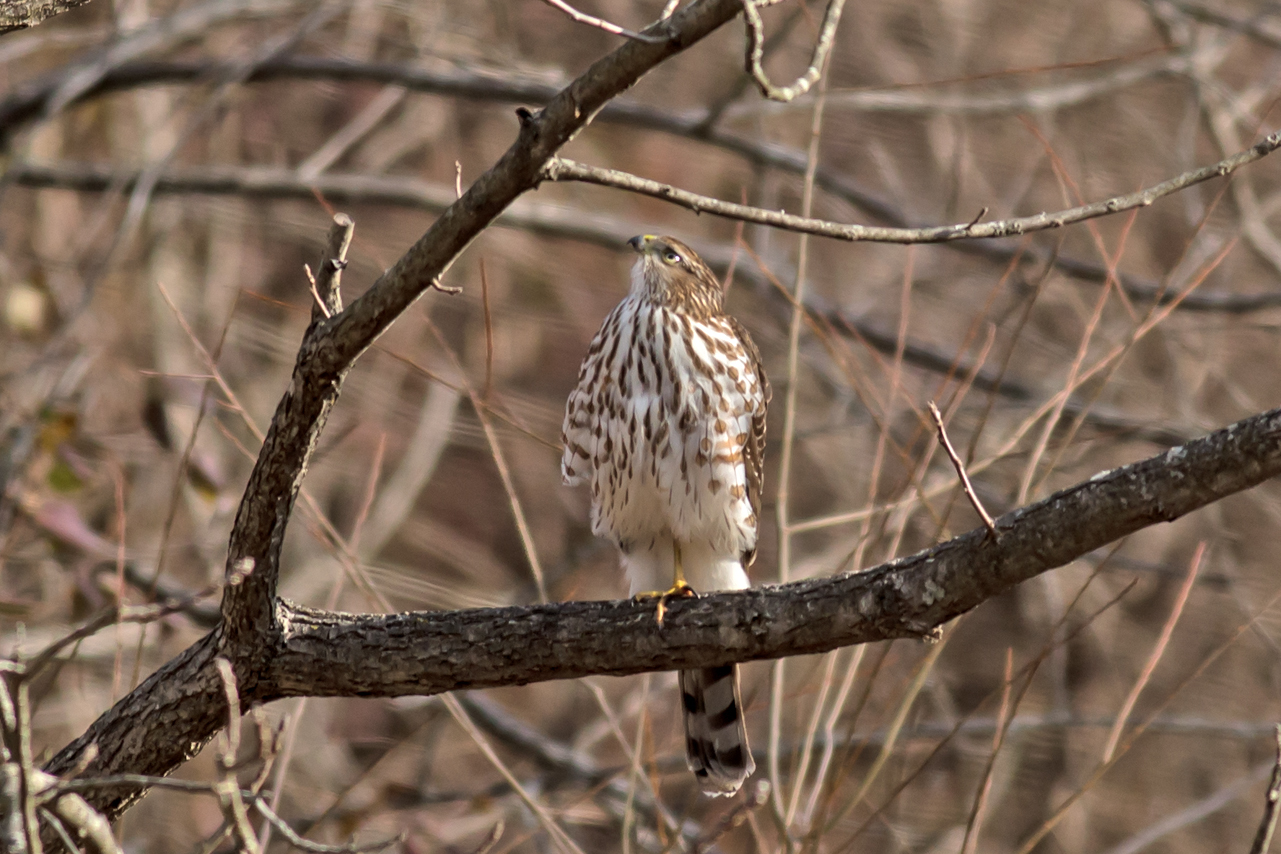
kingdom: Animalia
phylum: Chordata
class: Aves
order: Accipitriformes
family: Accipitridae
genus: Accipiter
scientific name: Accipiter cooperii
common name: Cooper's hawk
